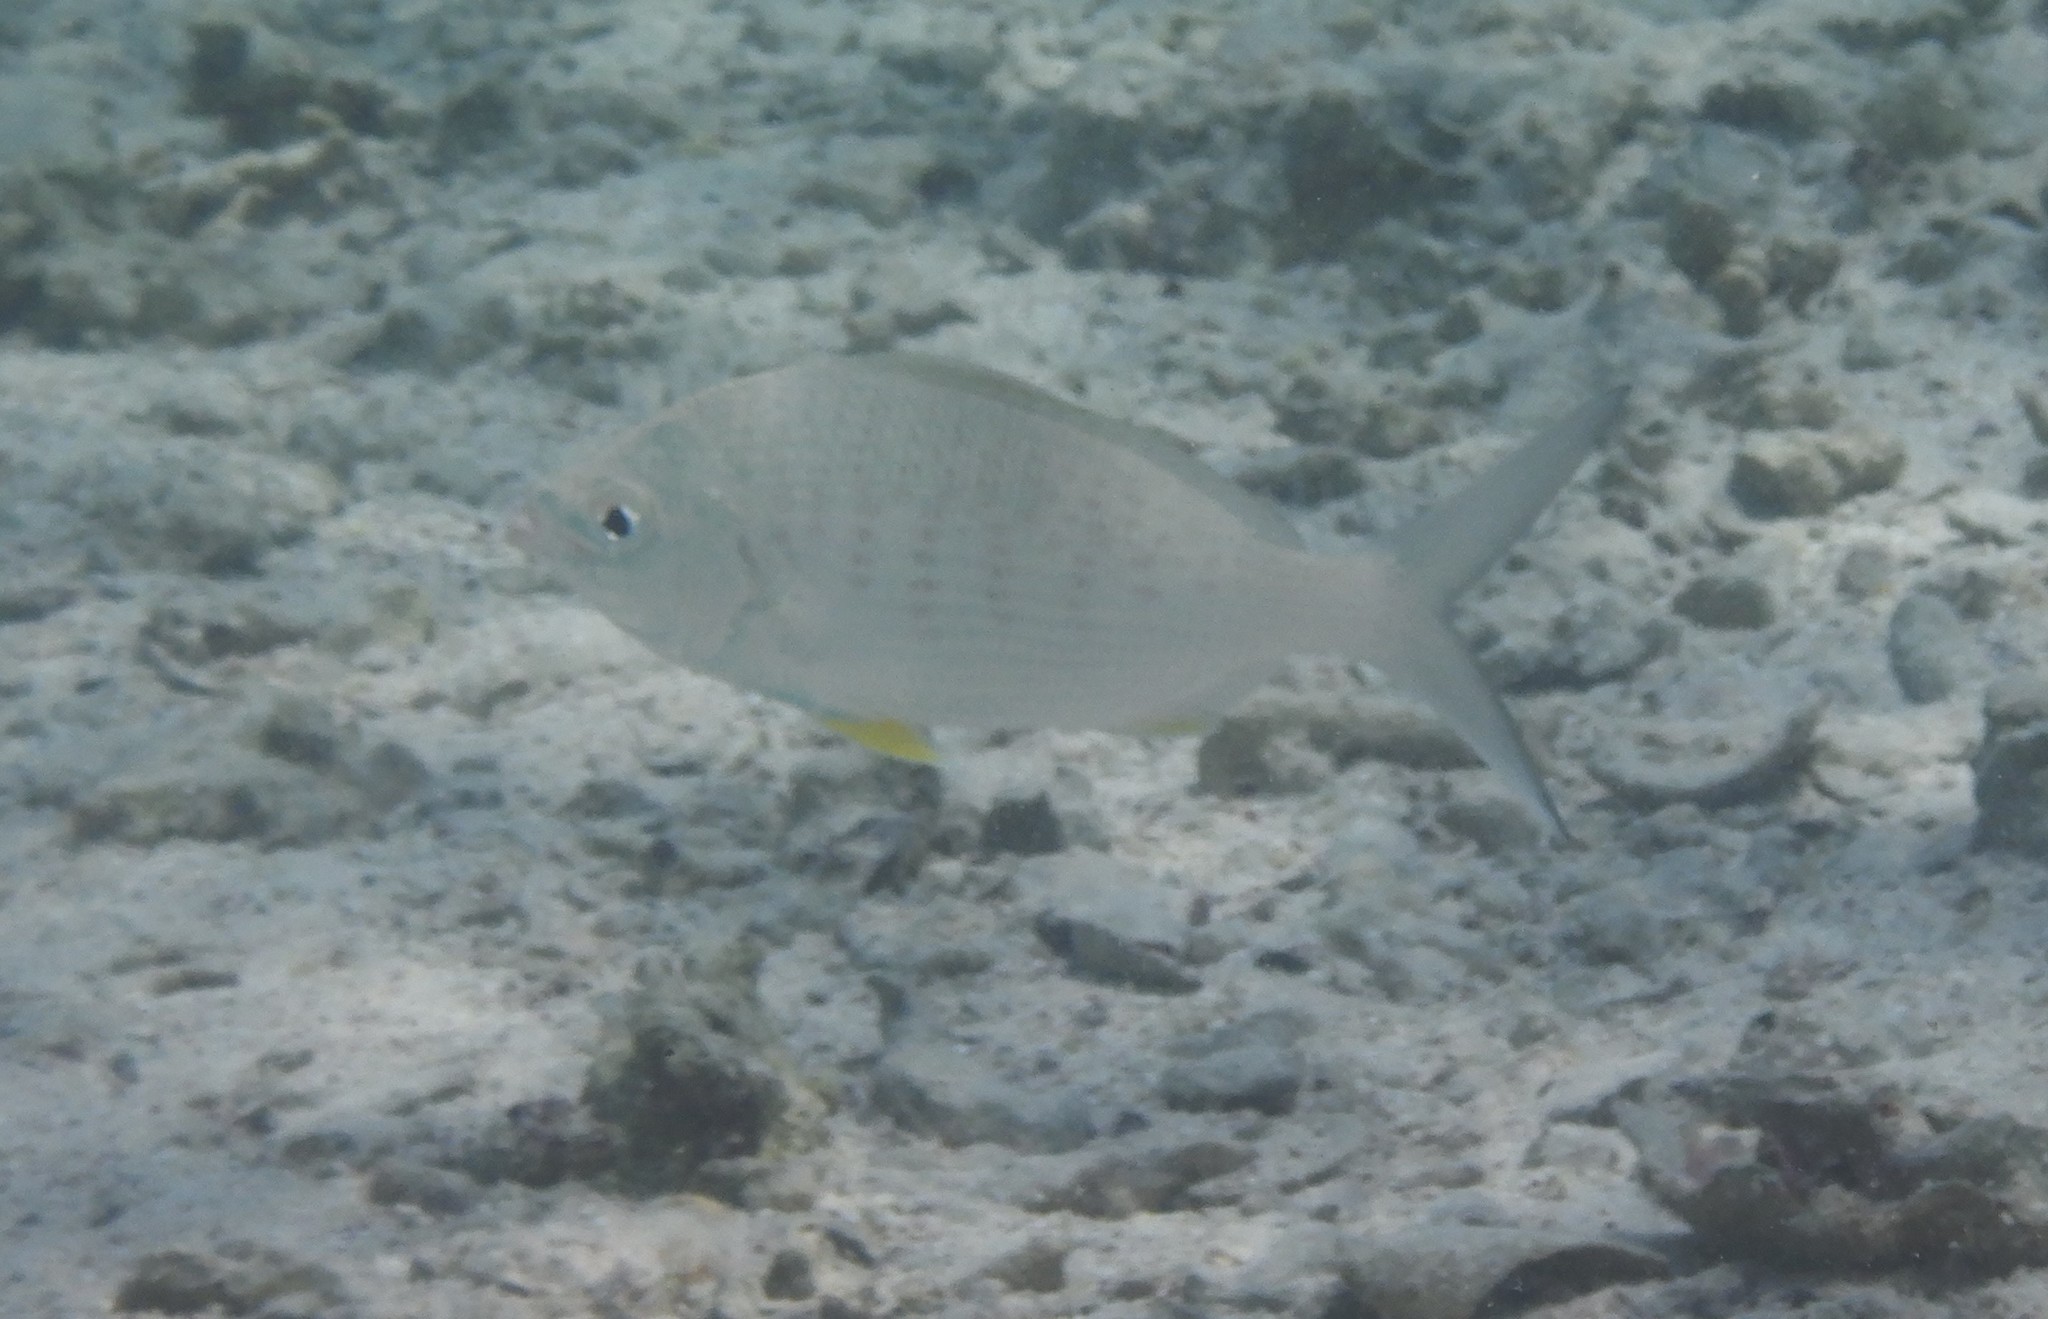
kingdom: Animalia
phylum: Chordata
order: Perciformes
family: Gerreidae
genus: Gerres
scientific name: Gerres longirostris
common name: Strongspine silver-biddy
